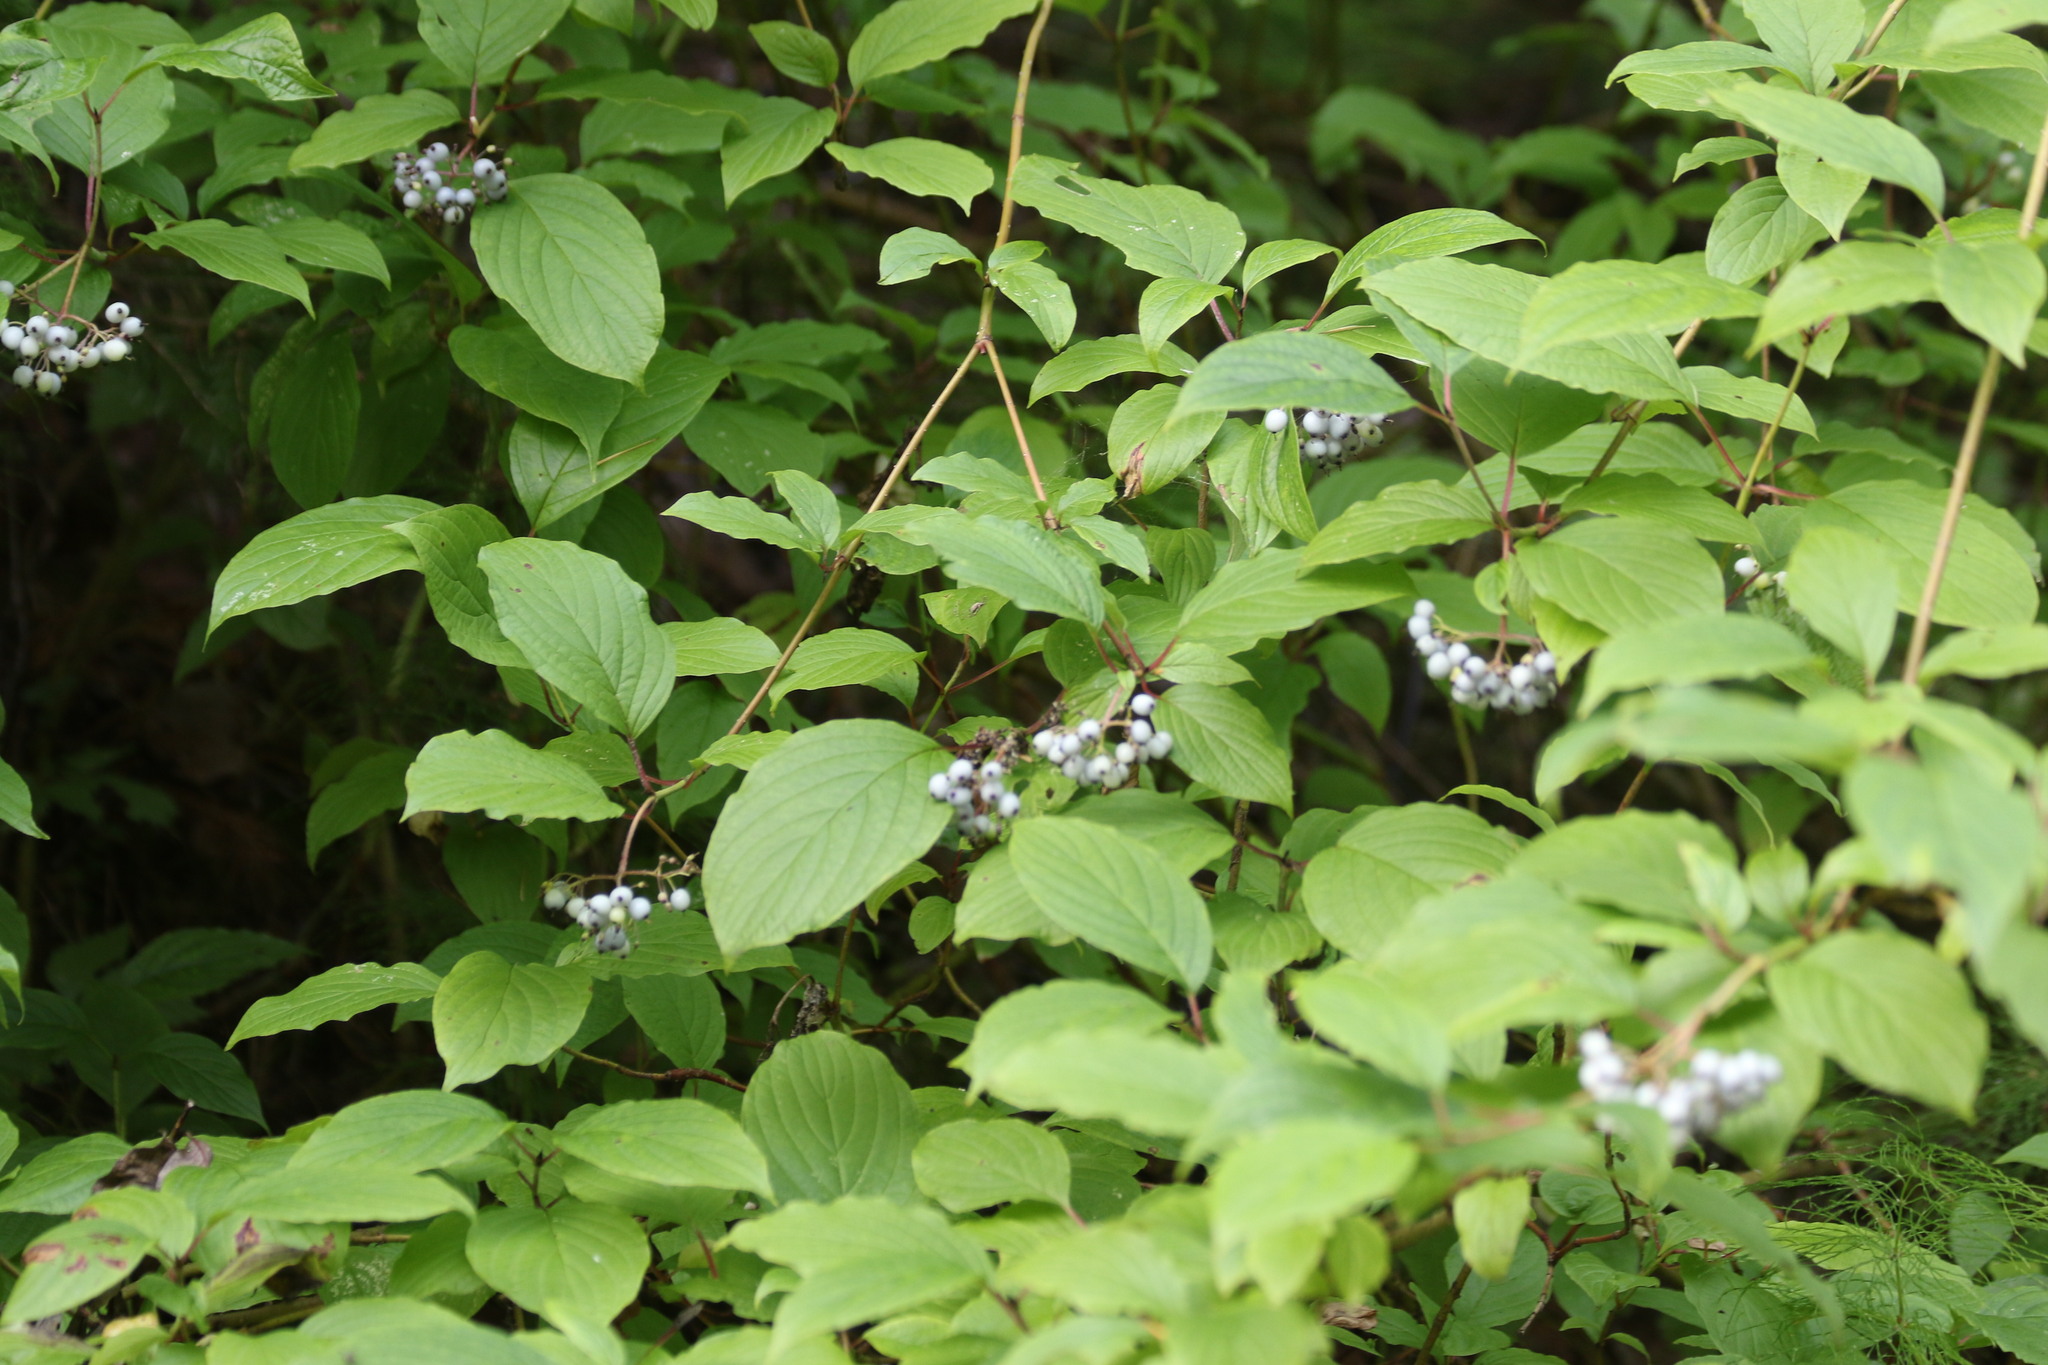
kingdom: Plantae
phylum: Tracheophyta
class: Magnoliopsida
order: Cornales
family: Cornaceae
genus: Cornus
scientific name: Cornus alba
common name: White dogwood
